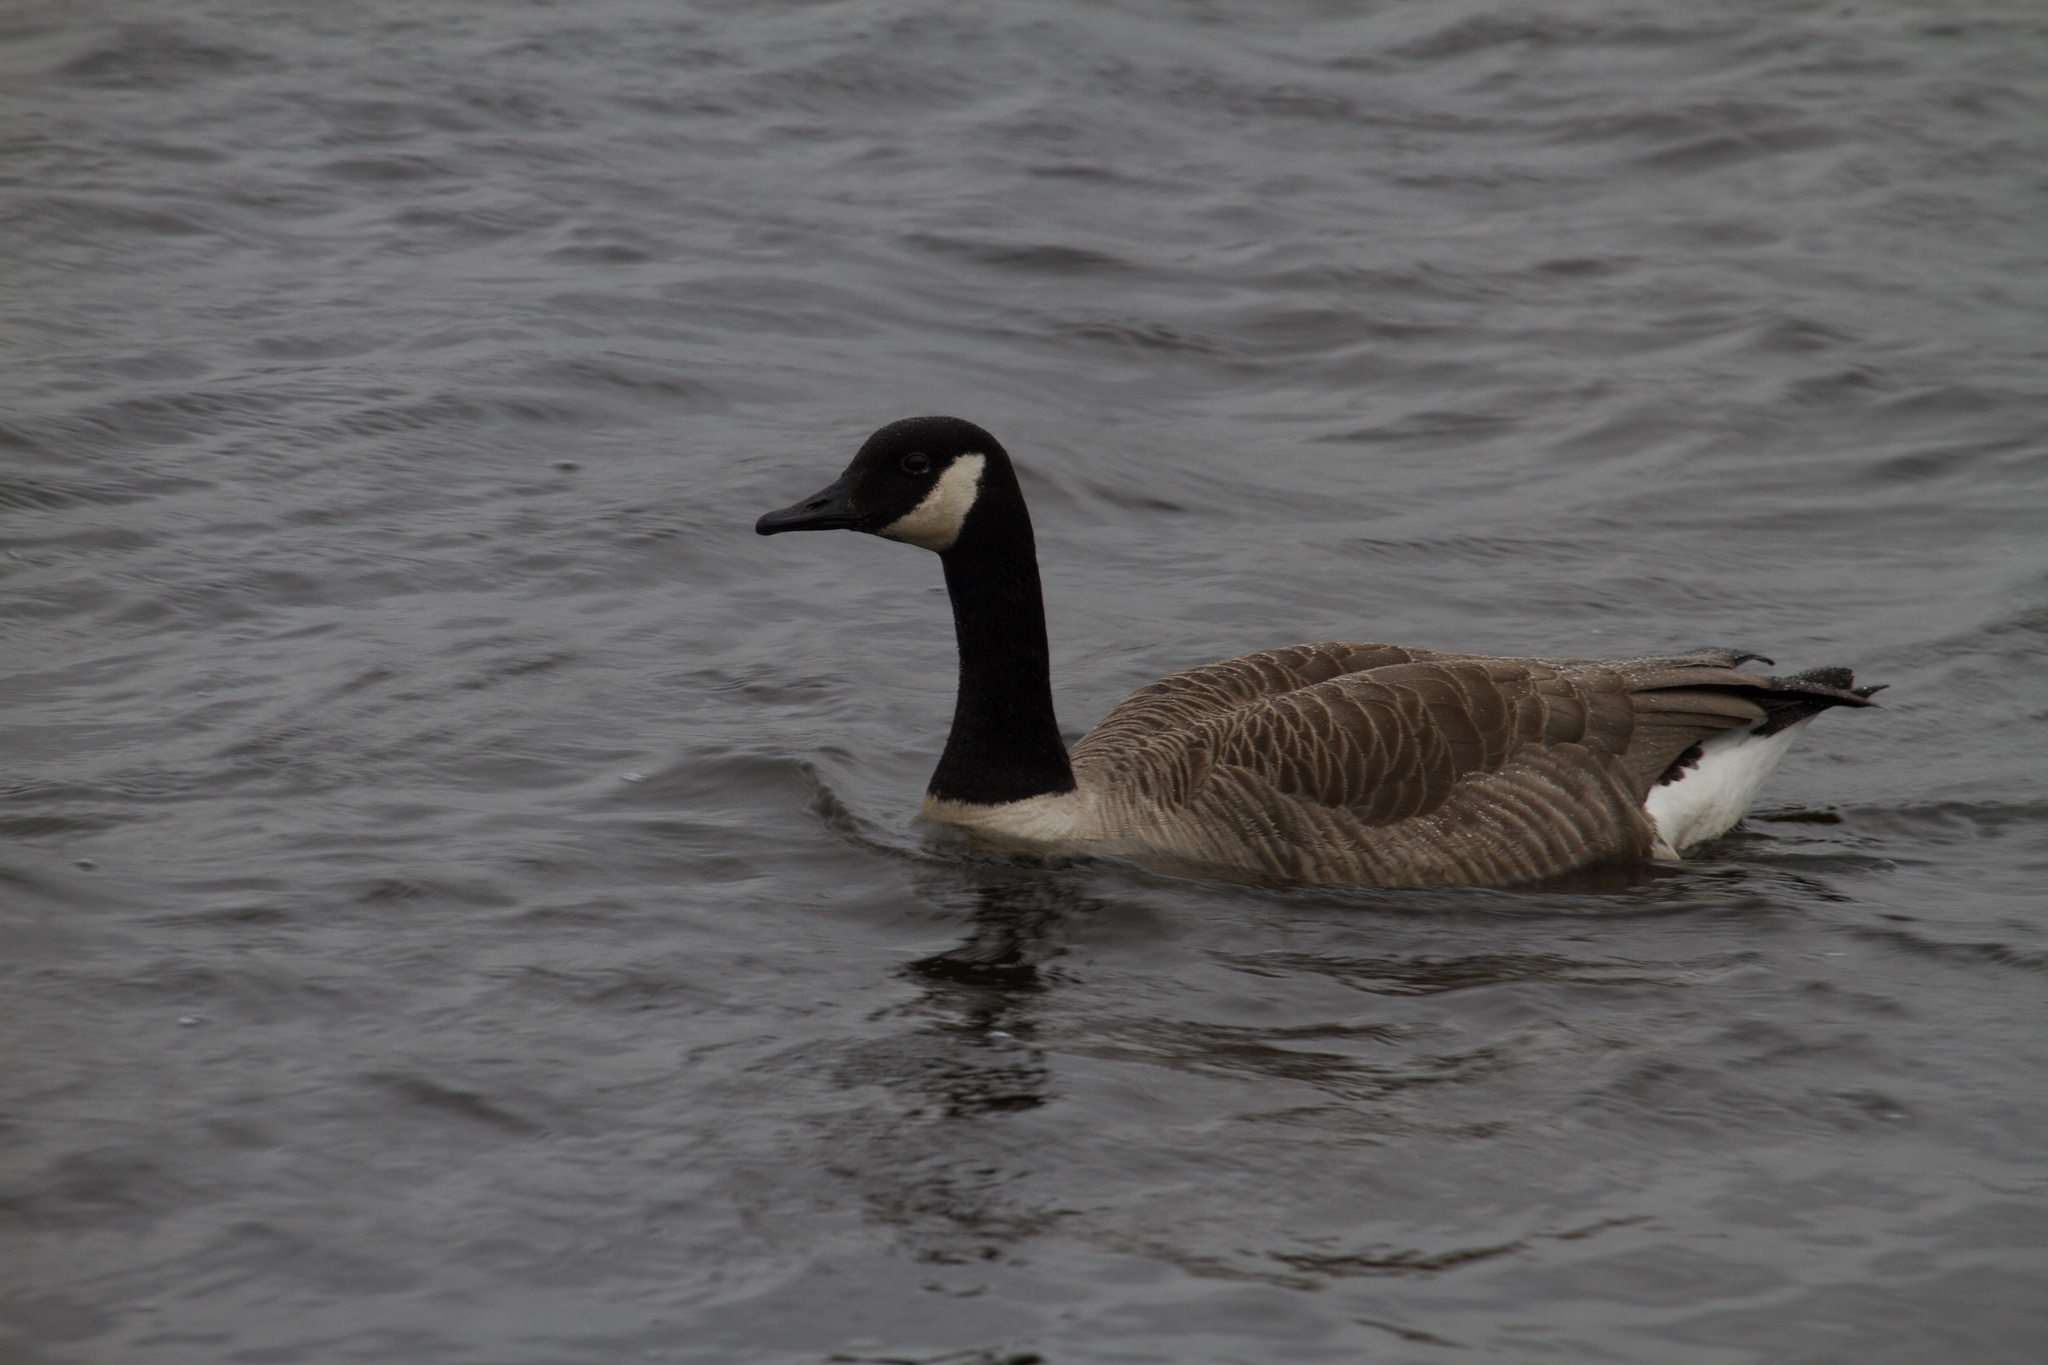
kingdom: Animalia
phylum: Chordata
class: Aves
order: Anseriformes
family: Anatidae
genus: Branta
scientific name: Branta canadensis
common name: Canada goose
